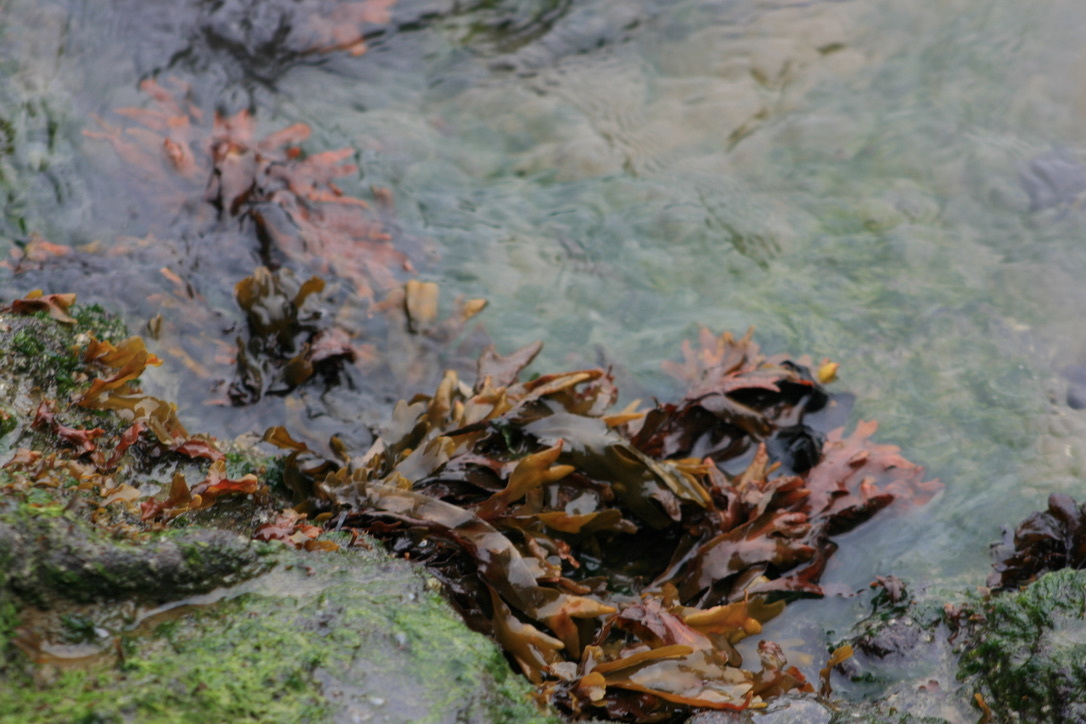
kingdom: Chromista
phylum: Ochrophyta
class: Phaeophyceae
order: Fucales
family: Fucaceae
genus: Fucus
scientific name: Fucus distichus
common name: Rockweed
